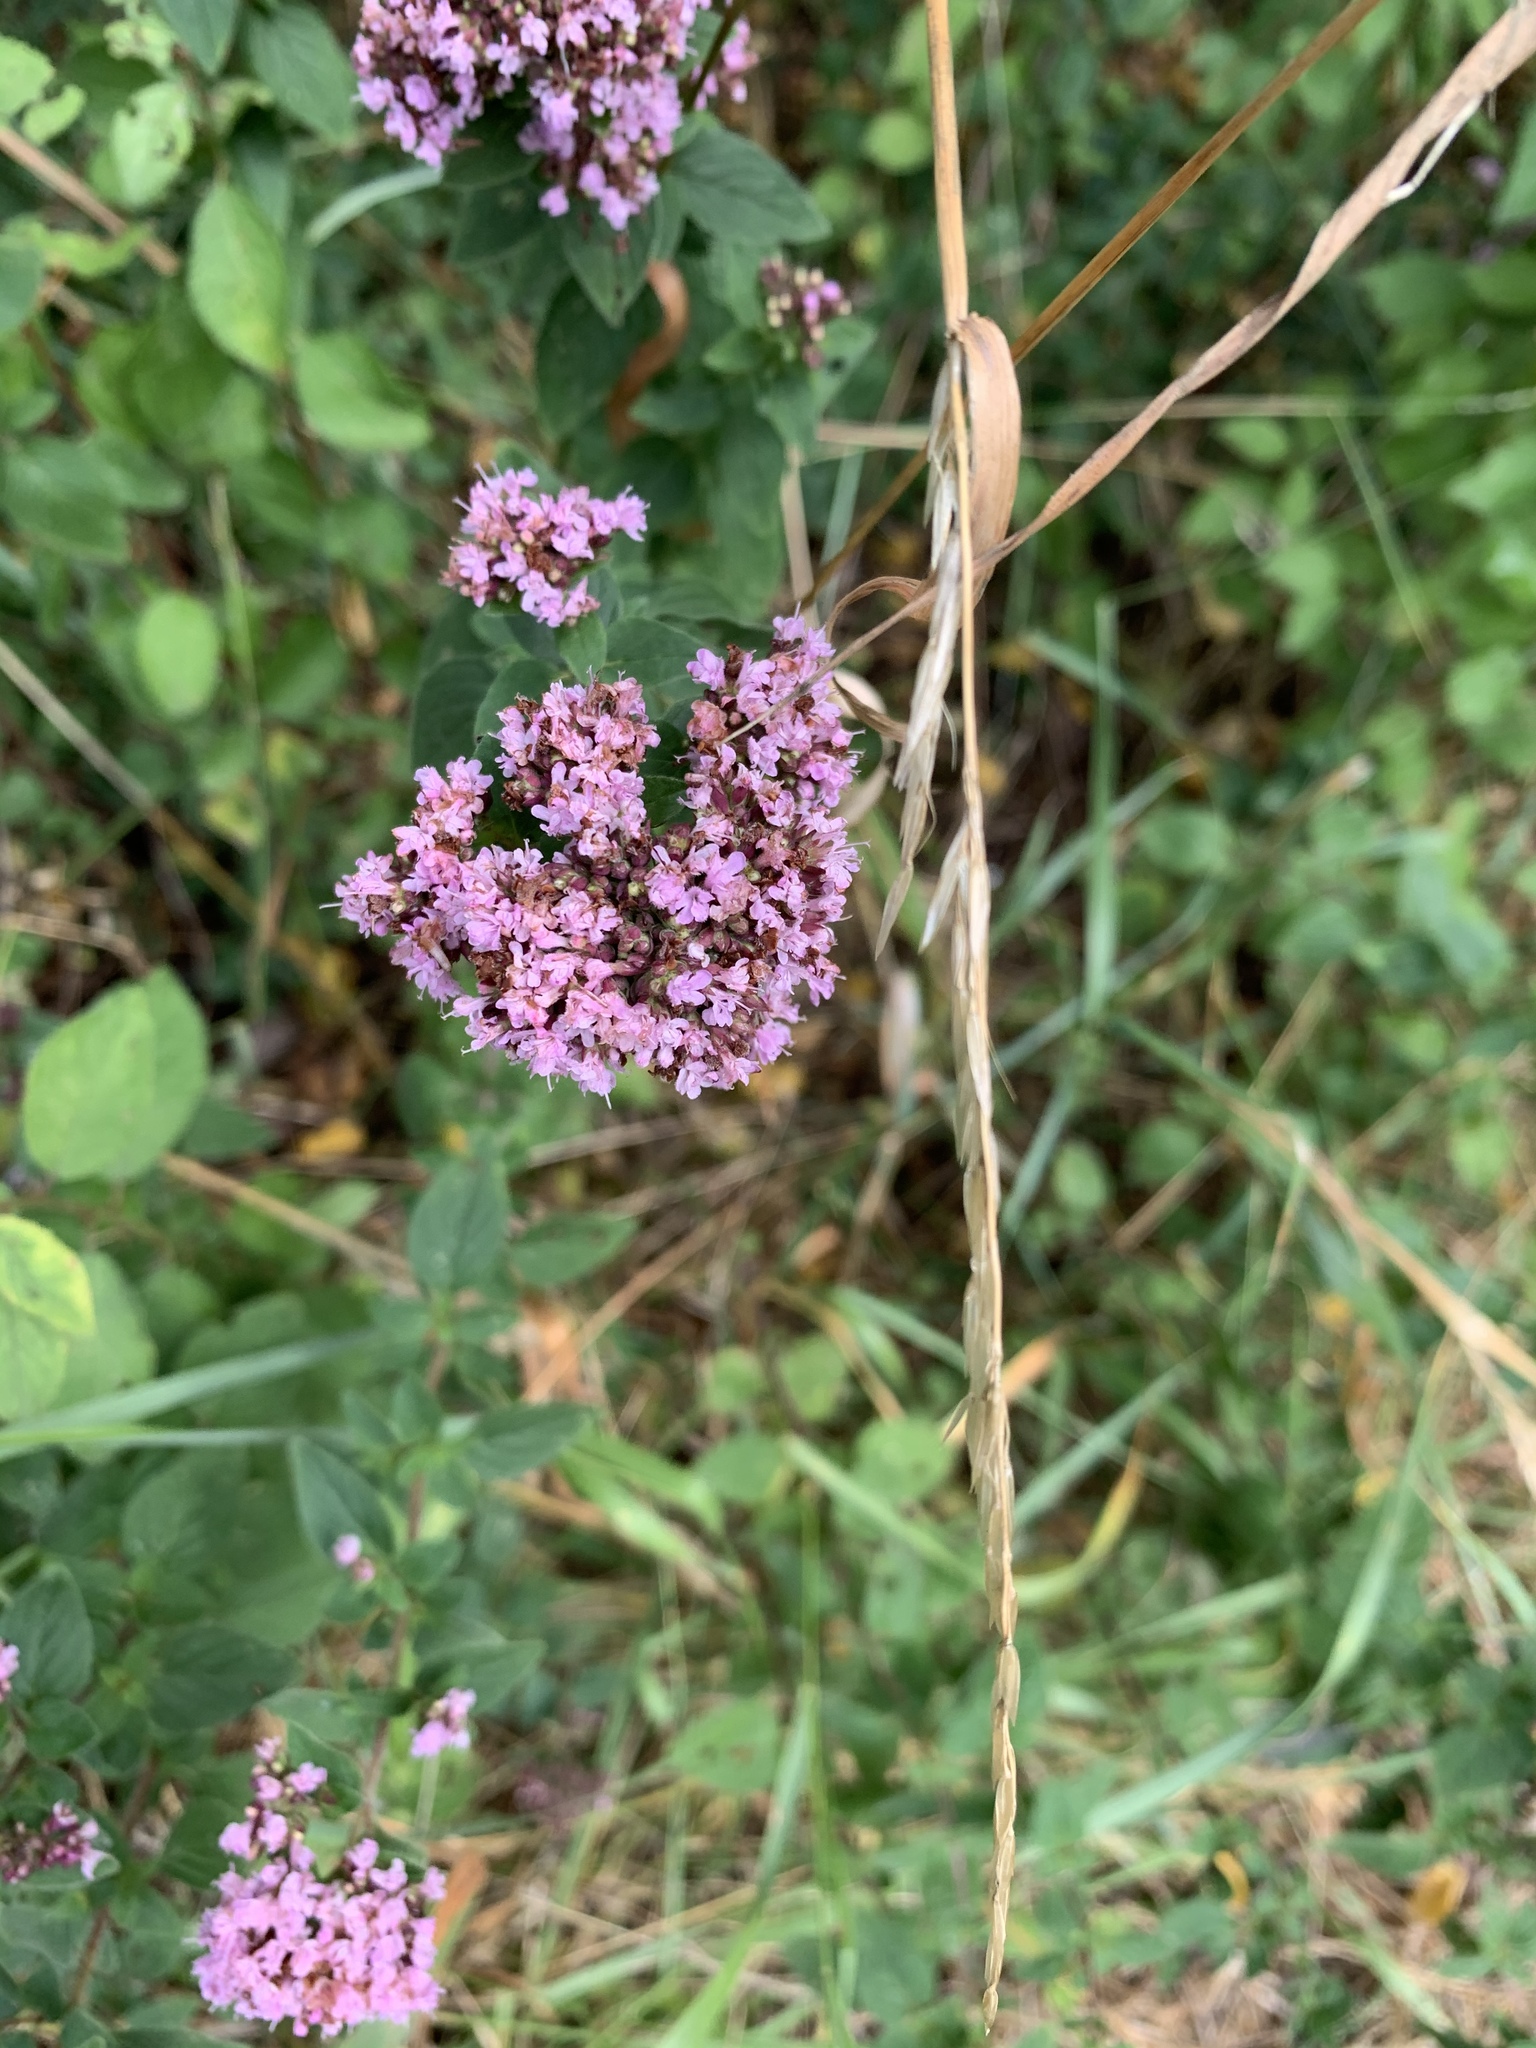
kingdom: Plantae
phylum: Tracheophyta
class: Magnoliopsida
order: Lamiales
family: Lamiaceae
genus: Origanum
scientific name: Origanum vulgare
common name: Wild marjoram
